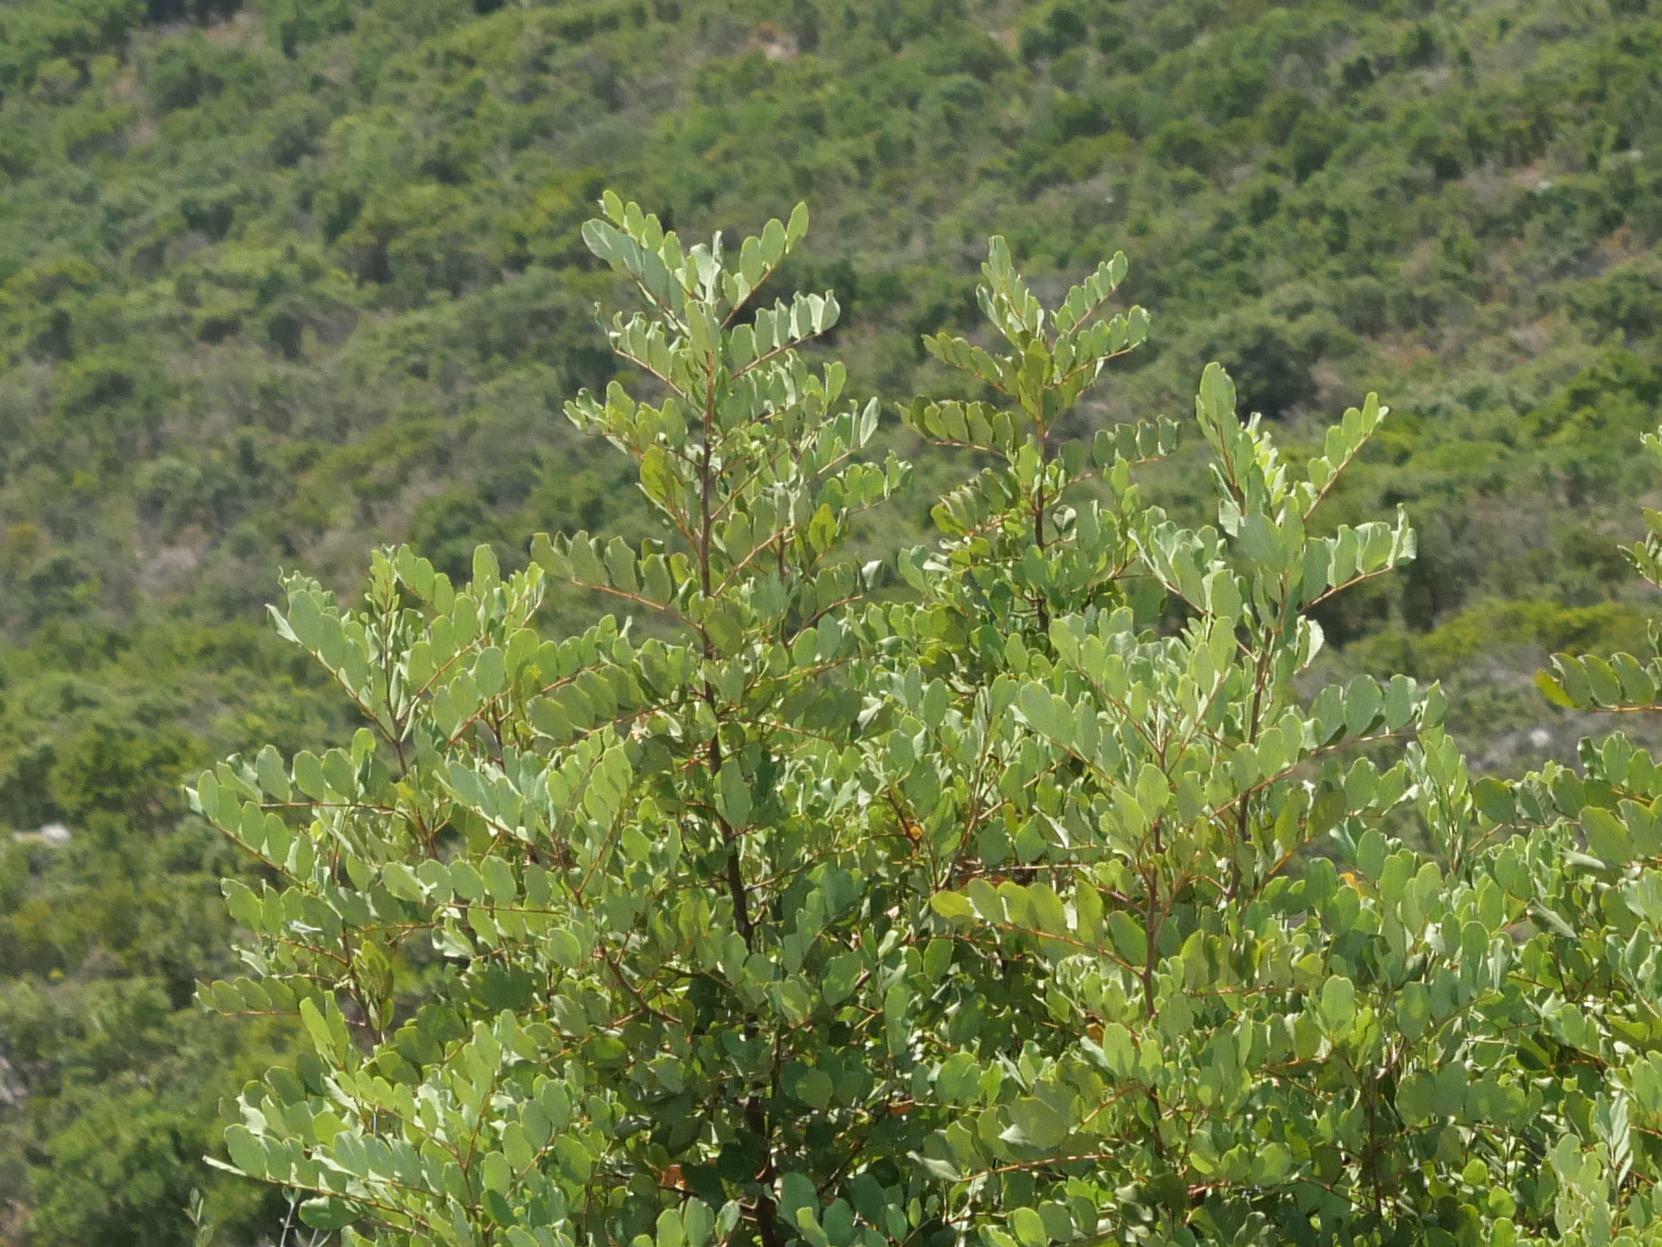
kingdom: Plantae
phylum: Tracheophyta
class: Magnoliopsida
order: Fabales
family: Fabaceae
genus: Ceratonia
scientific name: Ceratonia siliqua
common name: Carob
